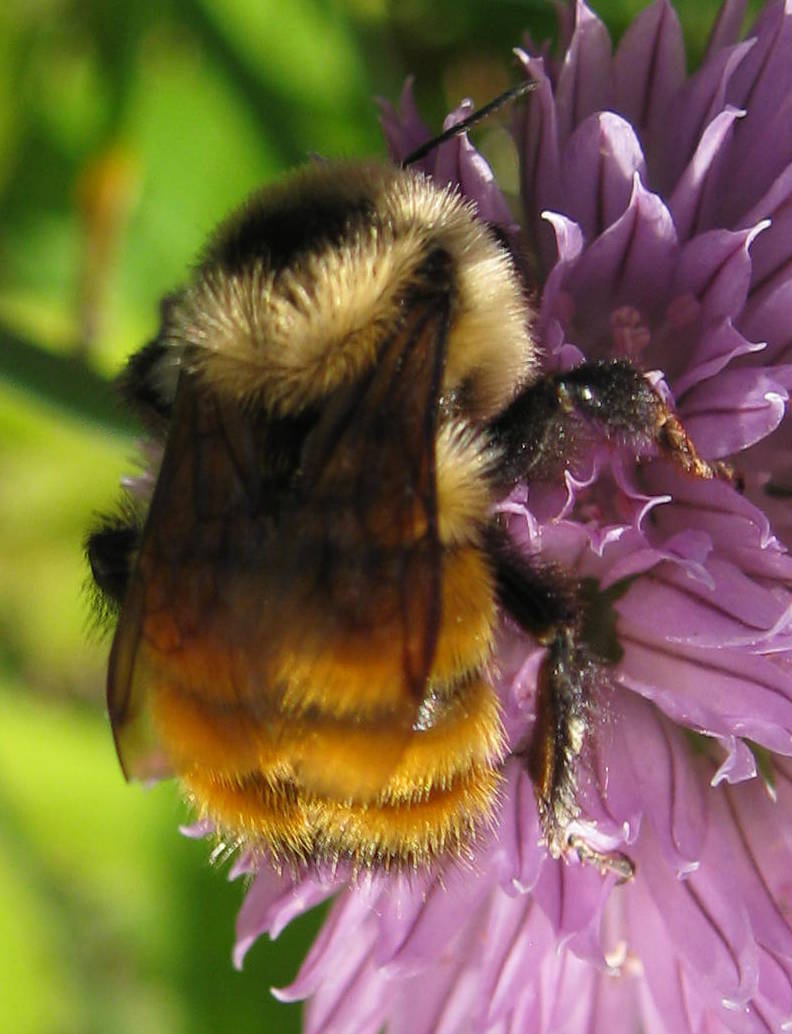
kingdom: Animalia
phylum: Arthropoda
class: Insecta
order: Hymenoptera
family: Apidae
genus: Bombus
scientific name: Bombus rufocinctus
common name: Red-belted bumble bee
